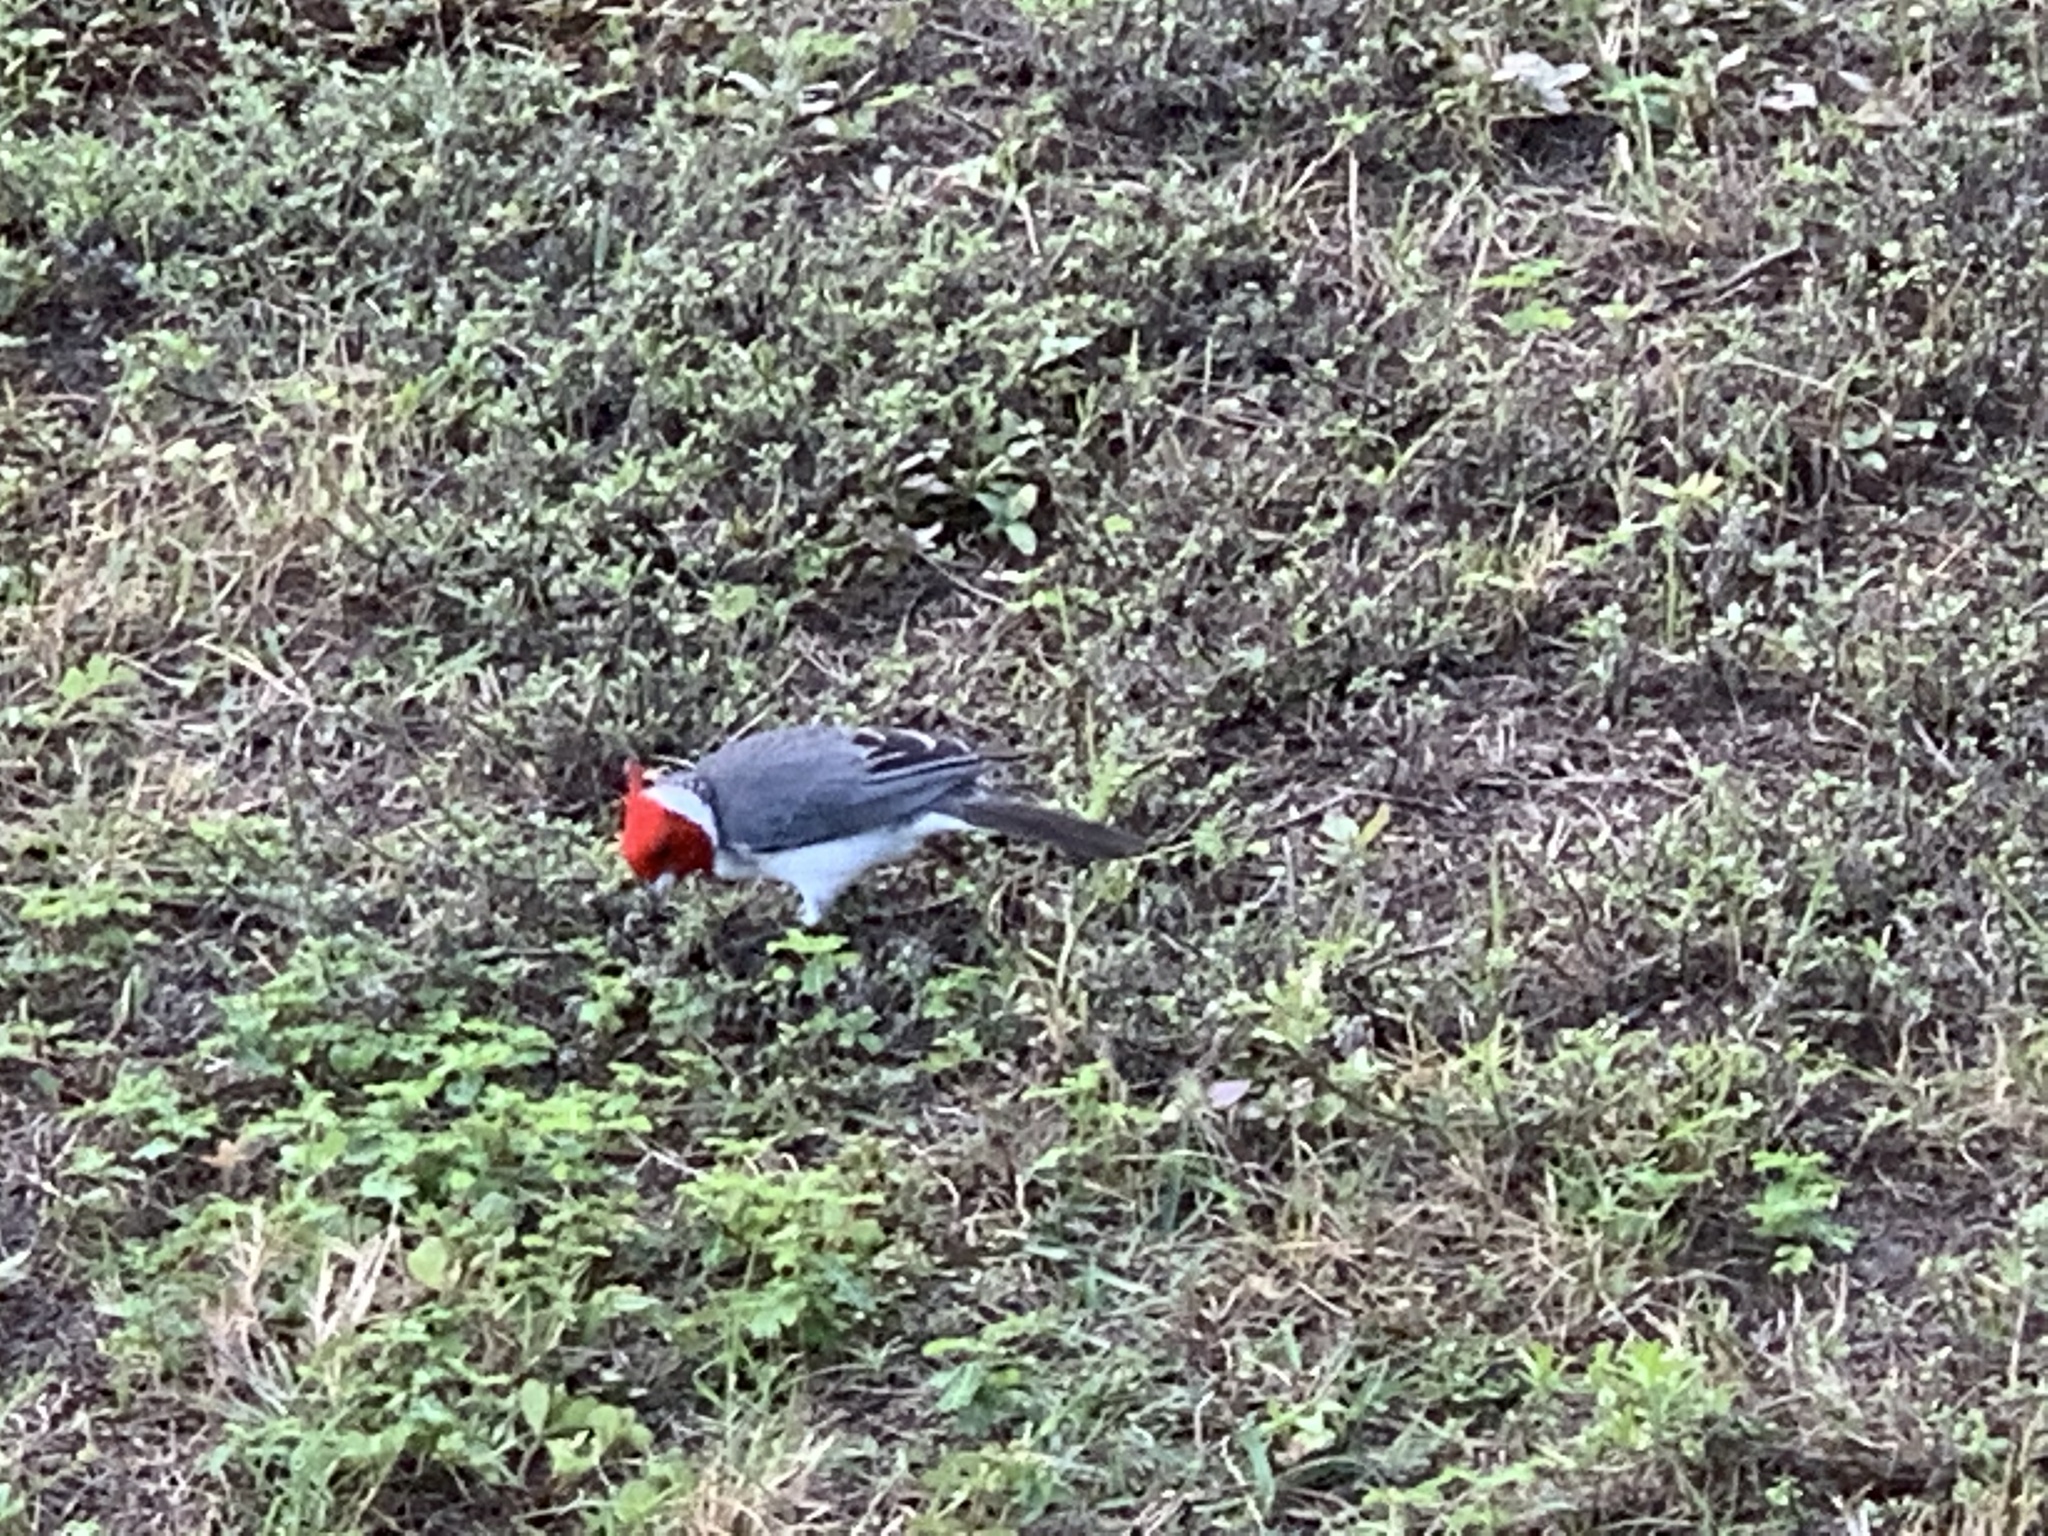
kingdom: Animalia
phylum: Chordata
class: Aves
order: Passeriformes
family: Thraupidae
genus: Paroaria
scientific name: Paroaria coronata
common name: Red-crested cardinal
